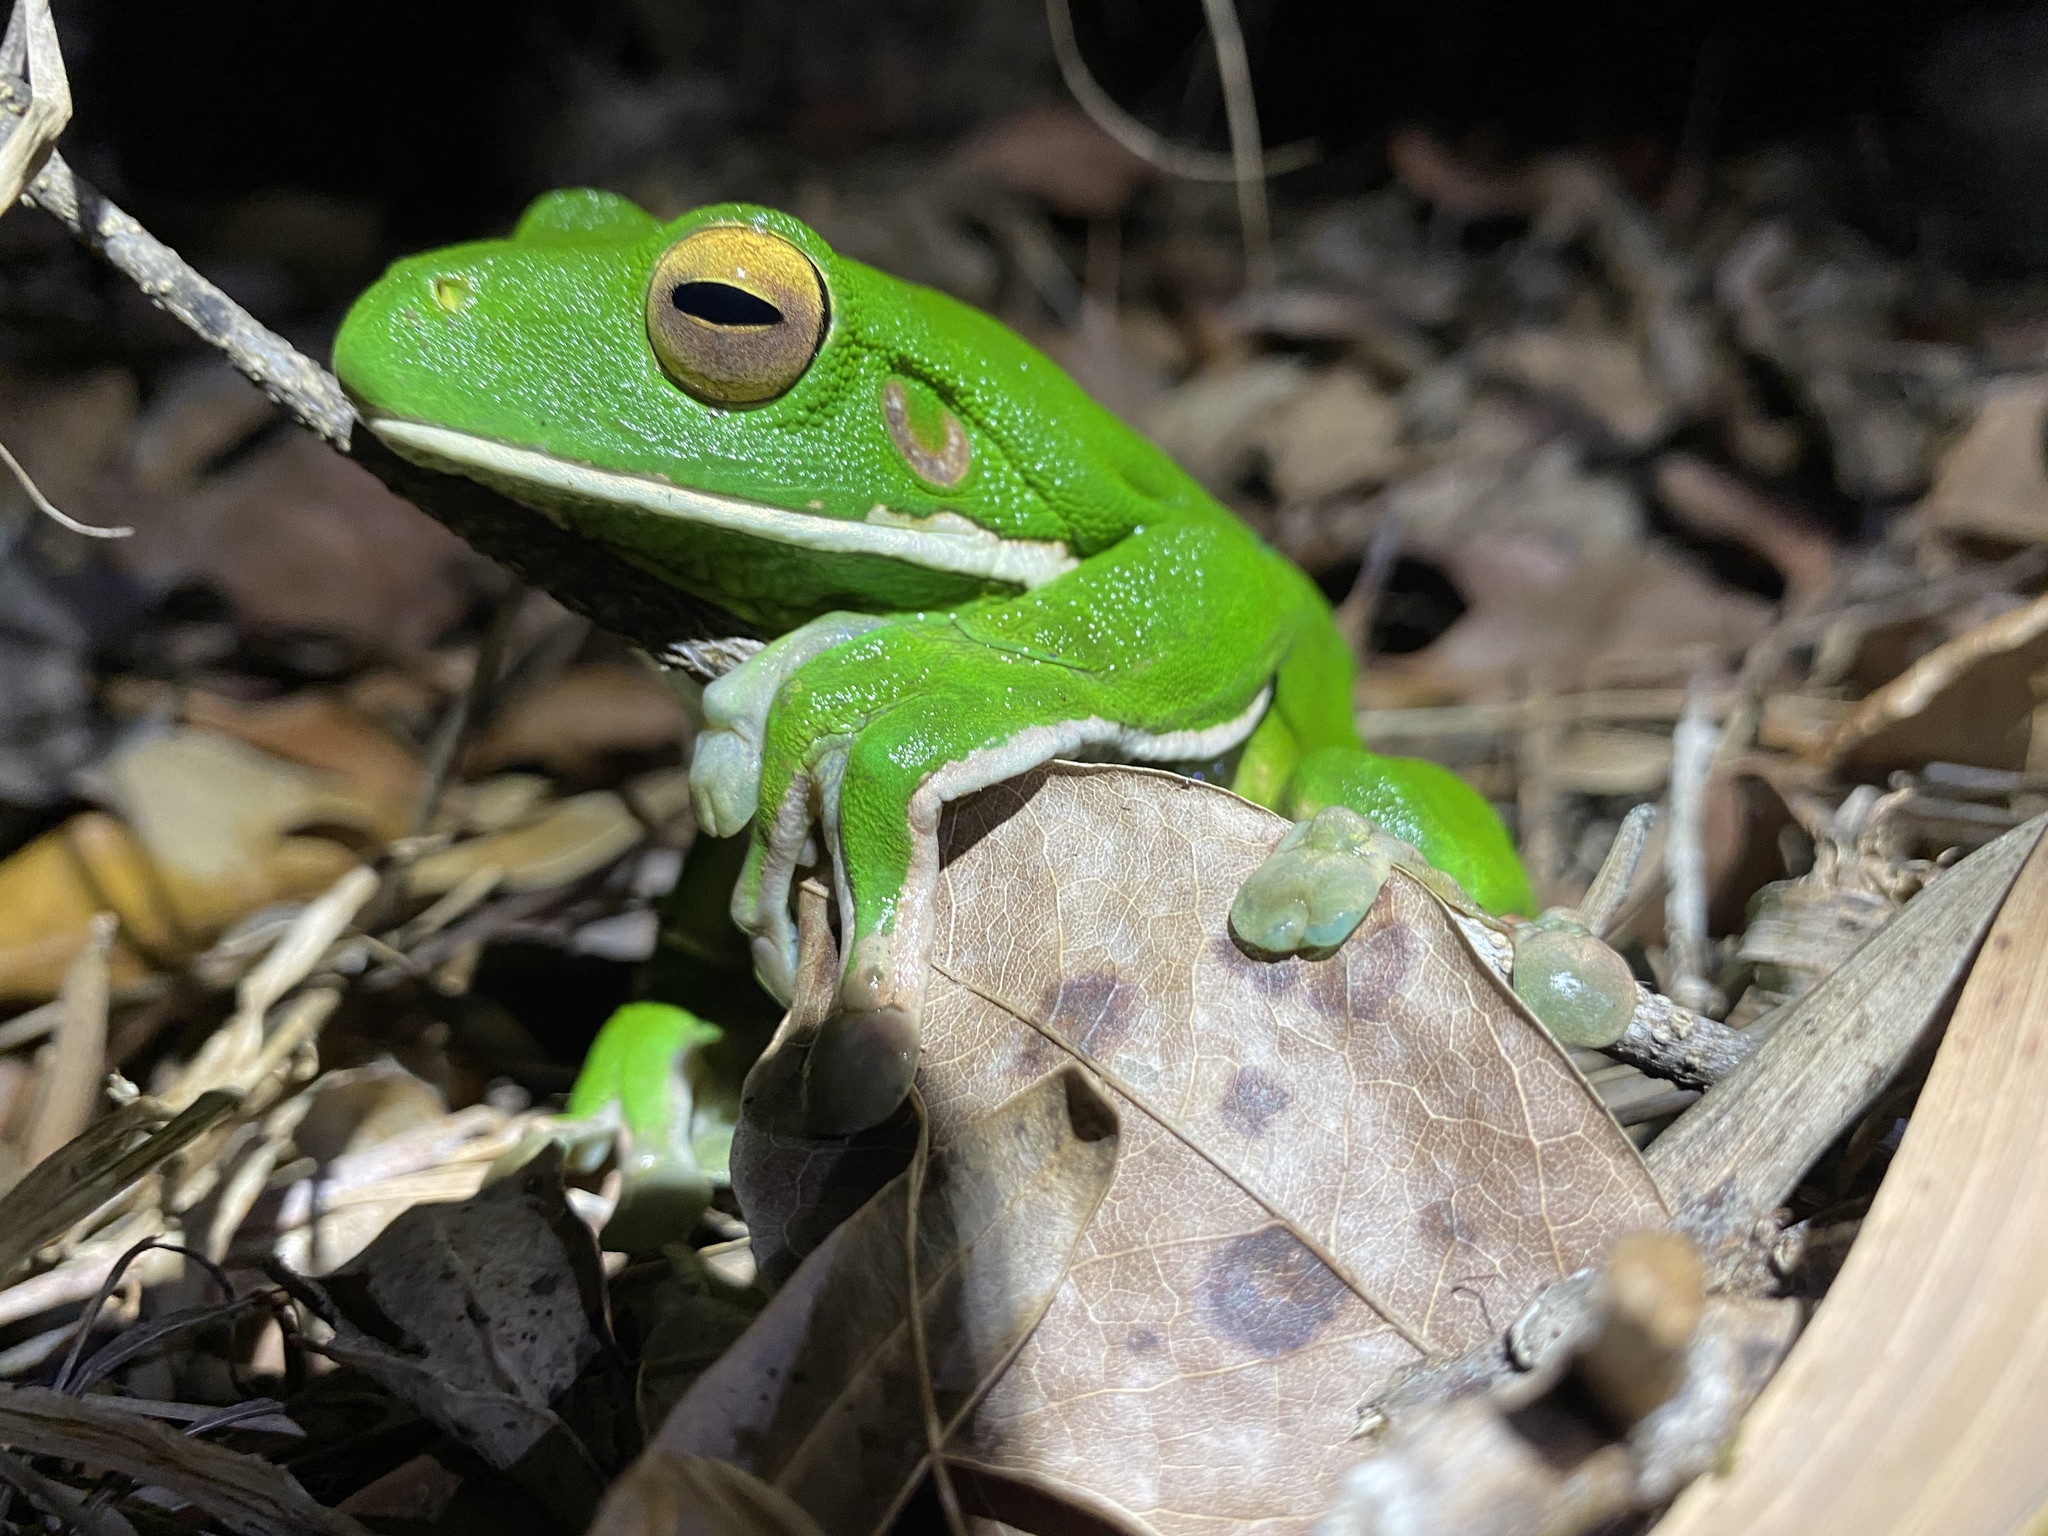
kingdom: Animalia
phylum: Chordata
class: Amphibia
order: Anura
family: Pelodryadidae
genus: Nyctimystes
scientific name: Nyctimystes infrafrenatus
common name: Australian giant treefrog
